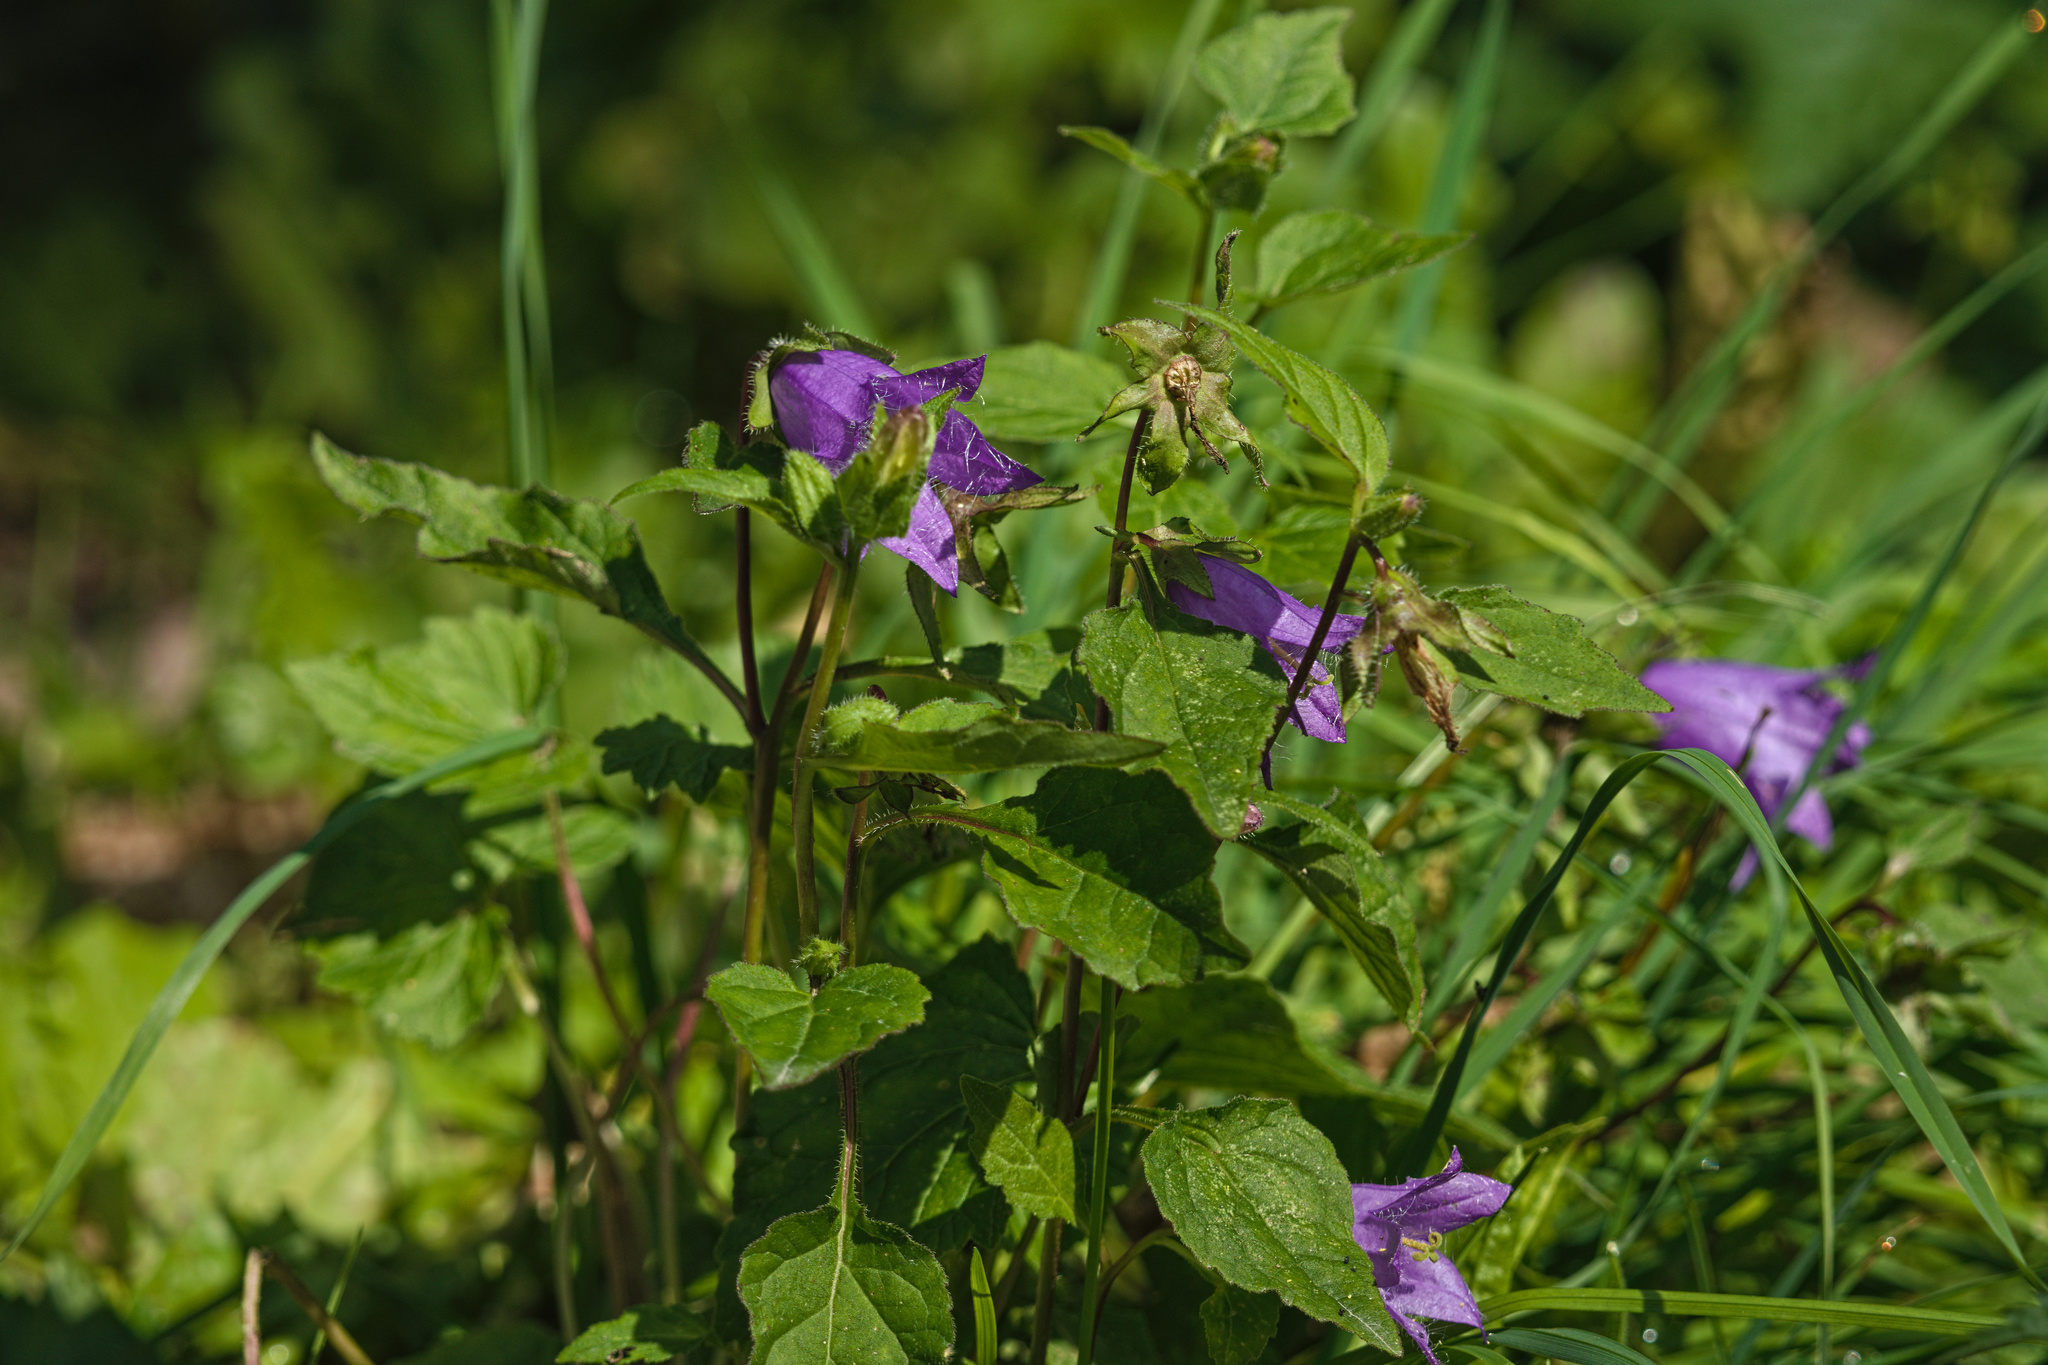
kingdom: Plantae
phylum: Tracheophyta
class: Magnoliopsida
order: Asterales
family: Campanulaceae
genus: Campanula
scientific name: Campanula trachelium
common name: Nettle-leaved bellflower
